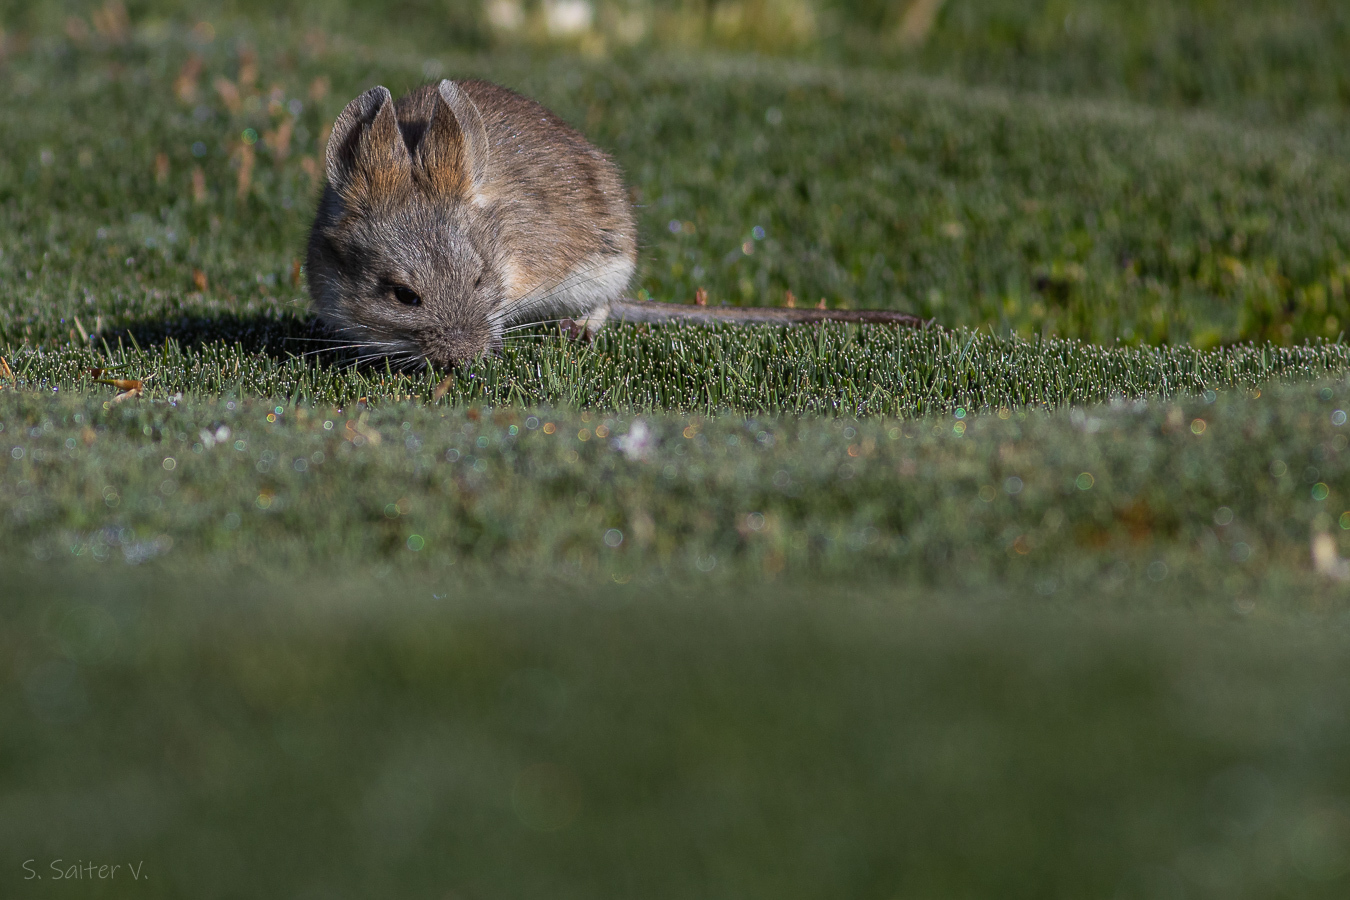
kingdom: Animalia
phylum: Chordata
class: Mammalia
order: Rodentia
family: Cricetidae
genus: Auliscomys
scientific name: Auliscomys boliviensis
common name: Bolivian pericote
